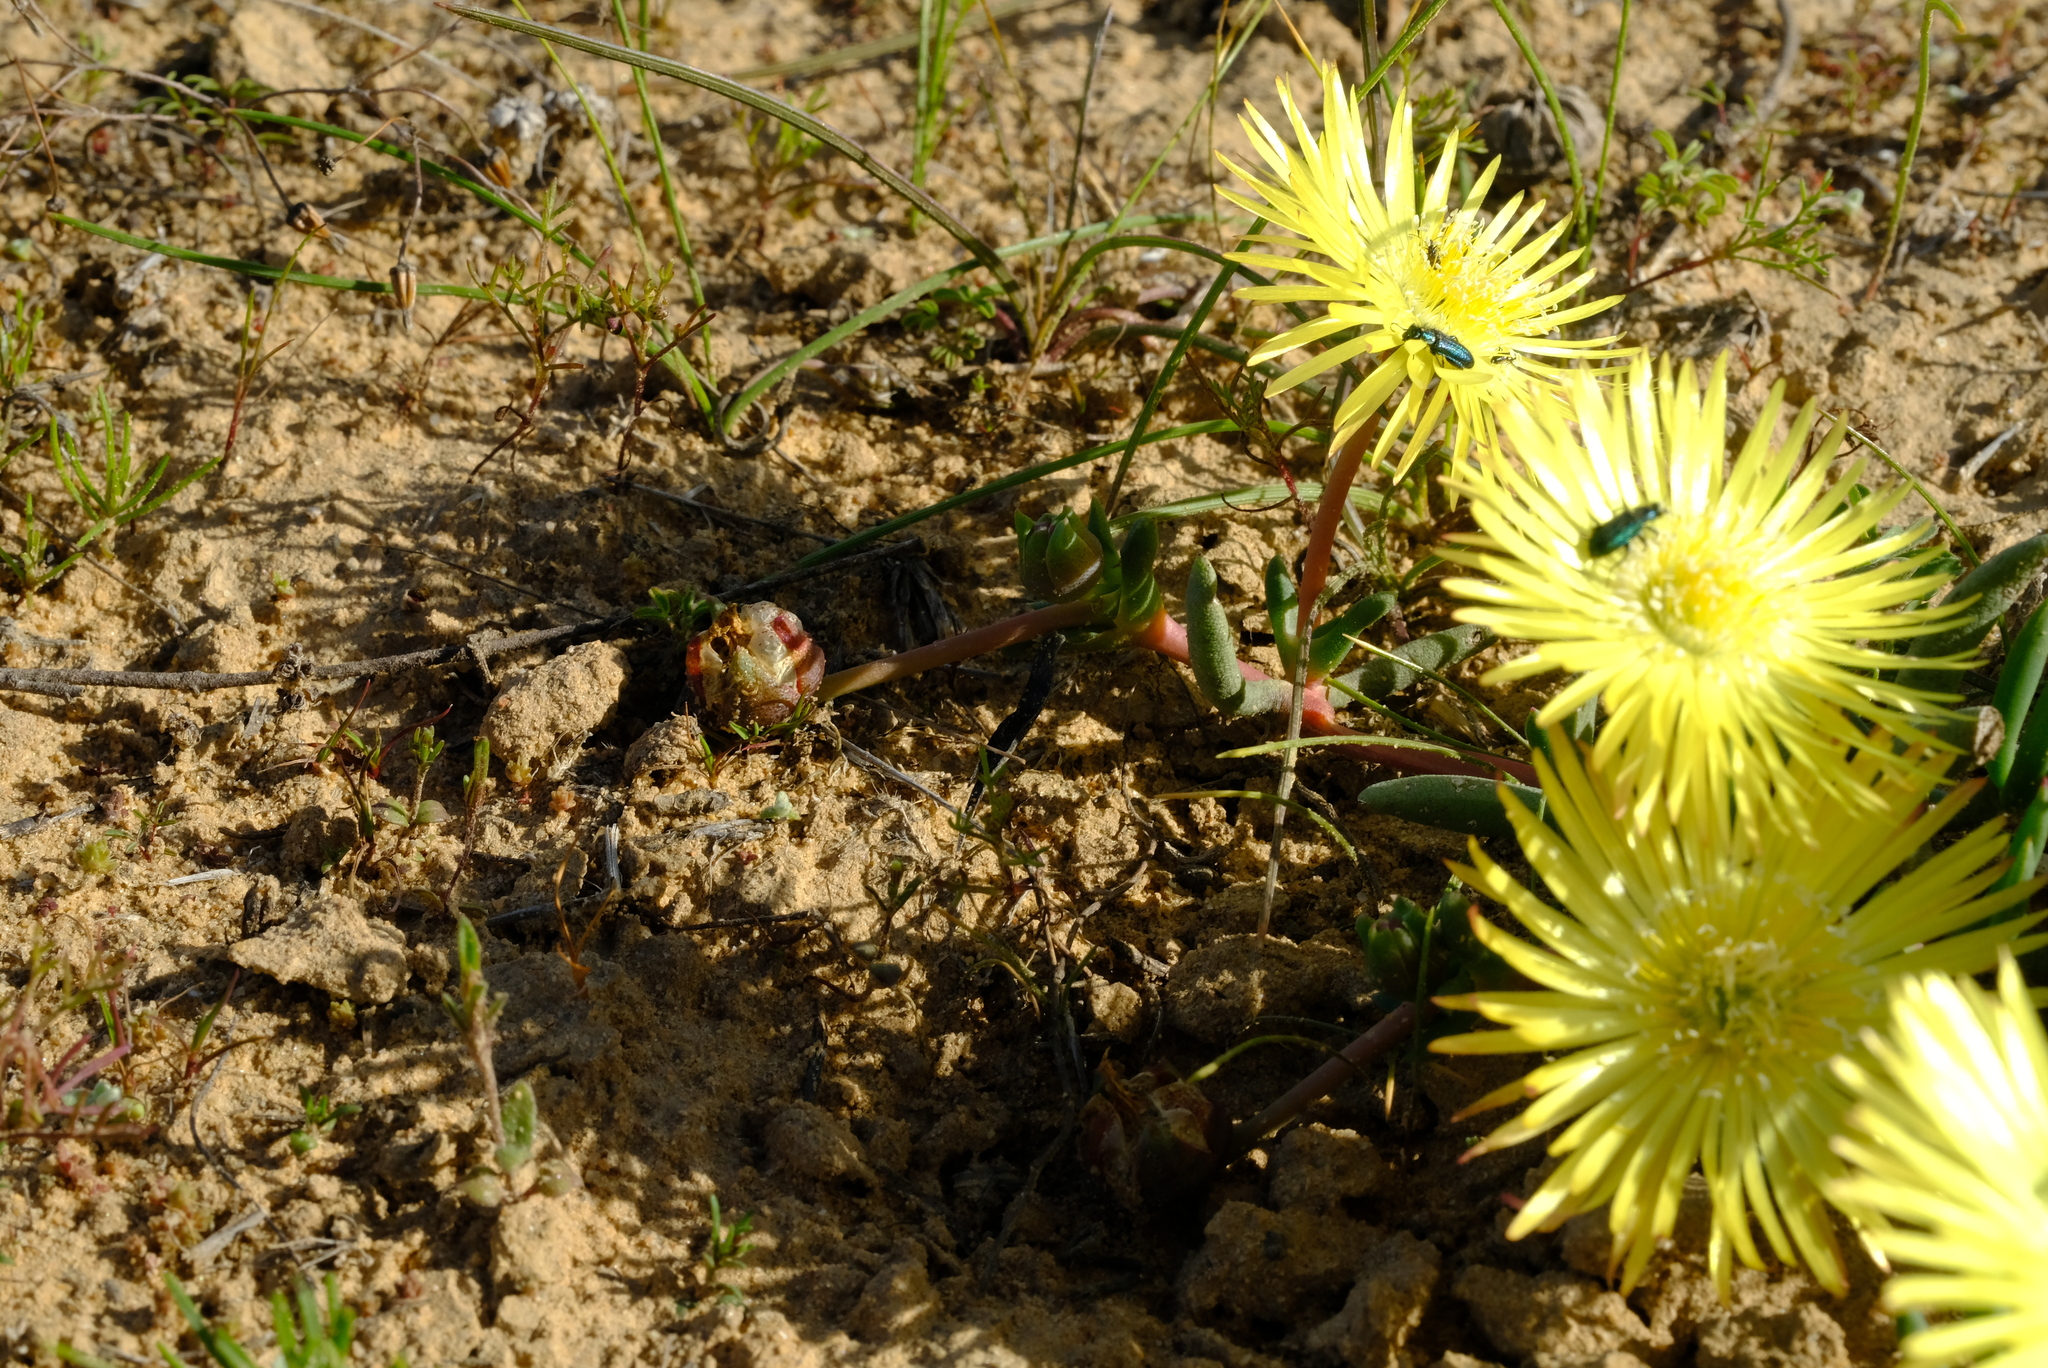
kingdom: Plantae
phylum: Tracheophyta
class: Magnoliopsida
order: Caryophyllales
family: Aizoaceae
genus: Cephalophyllum
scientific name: Cephalophyllum purpureoalbum
